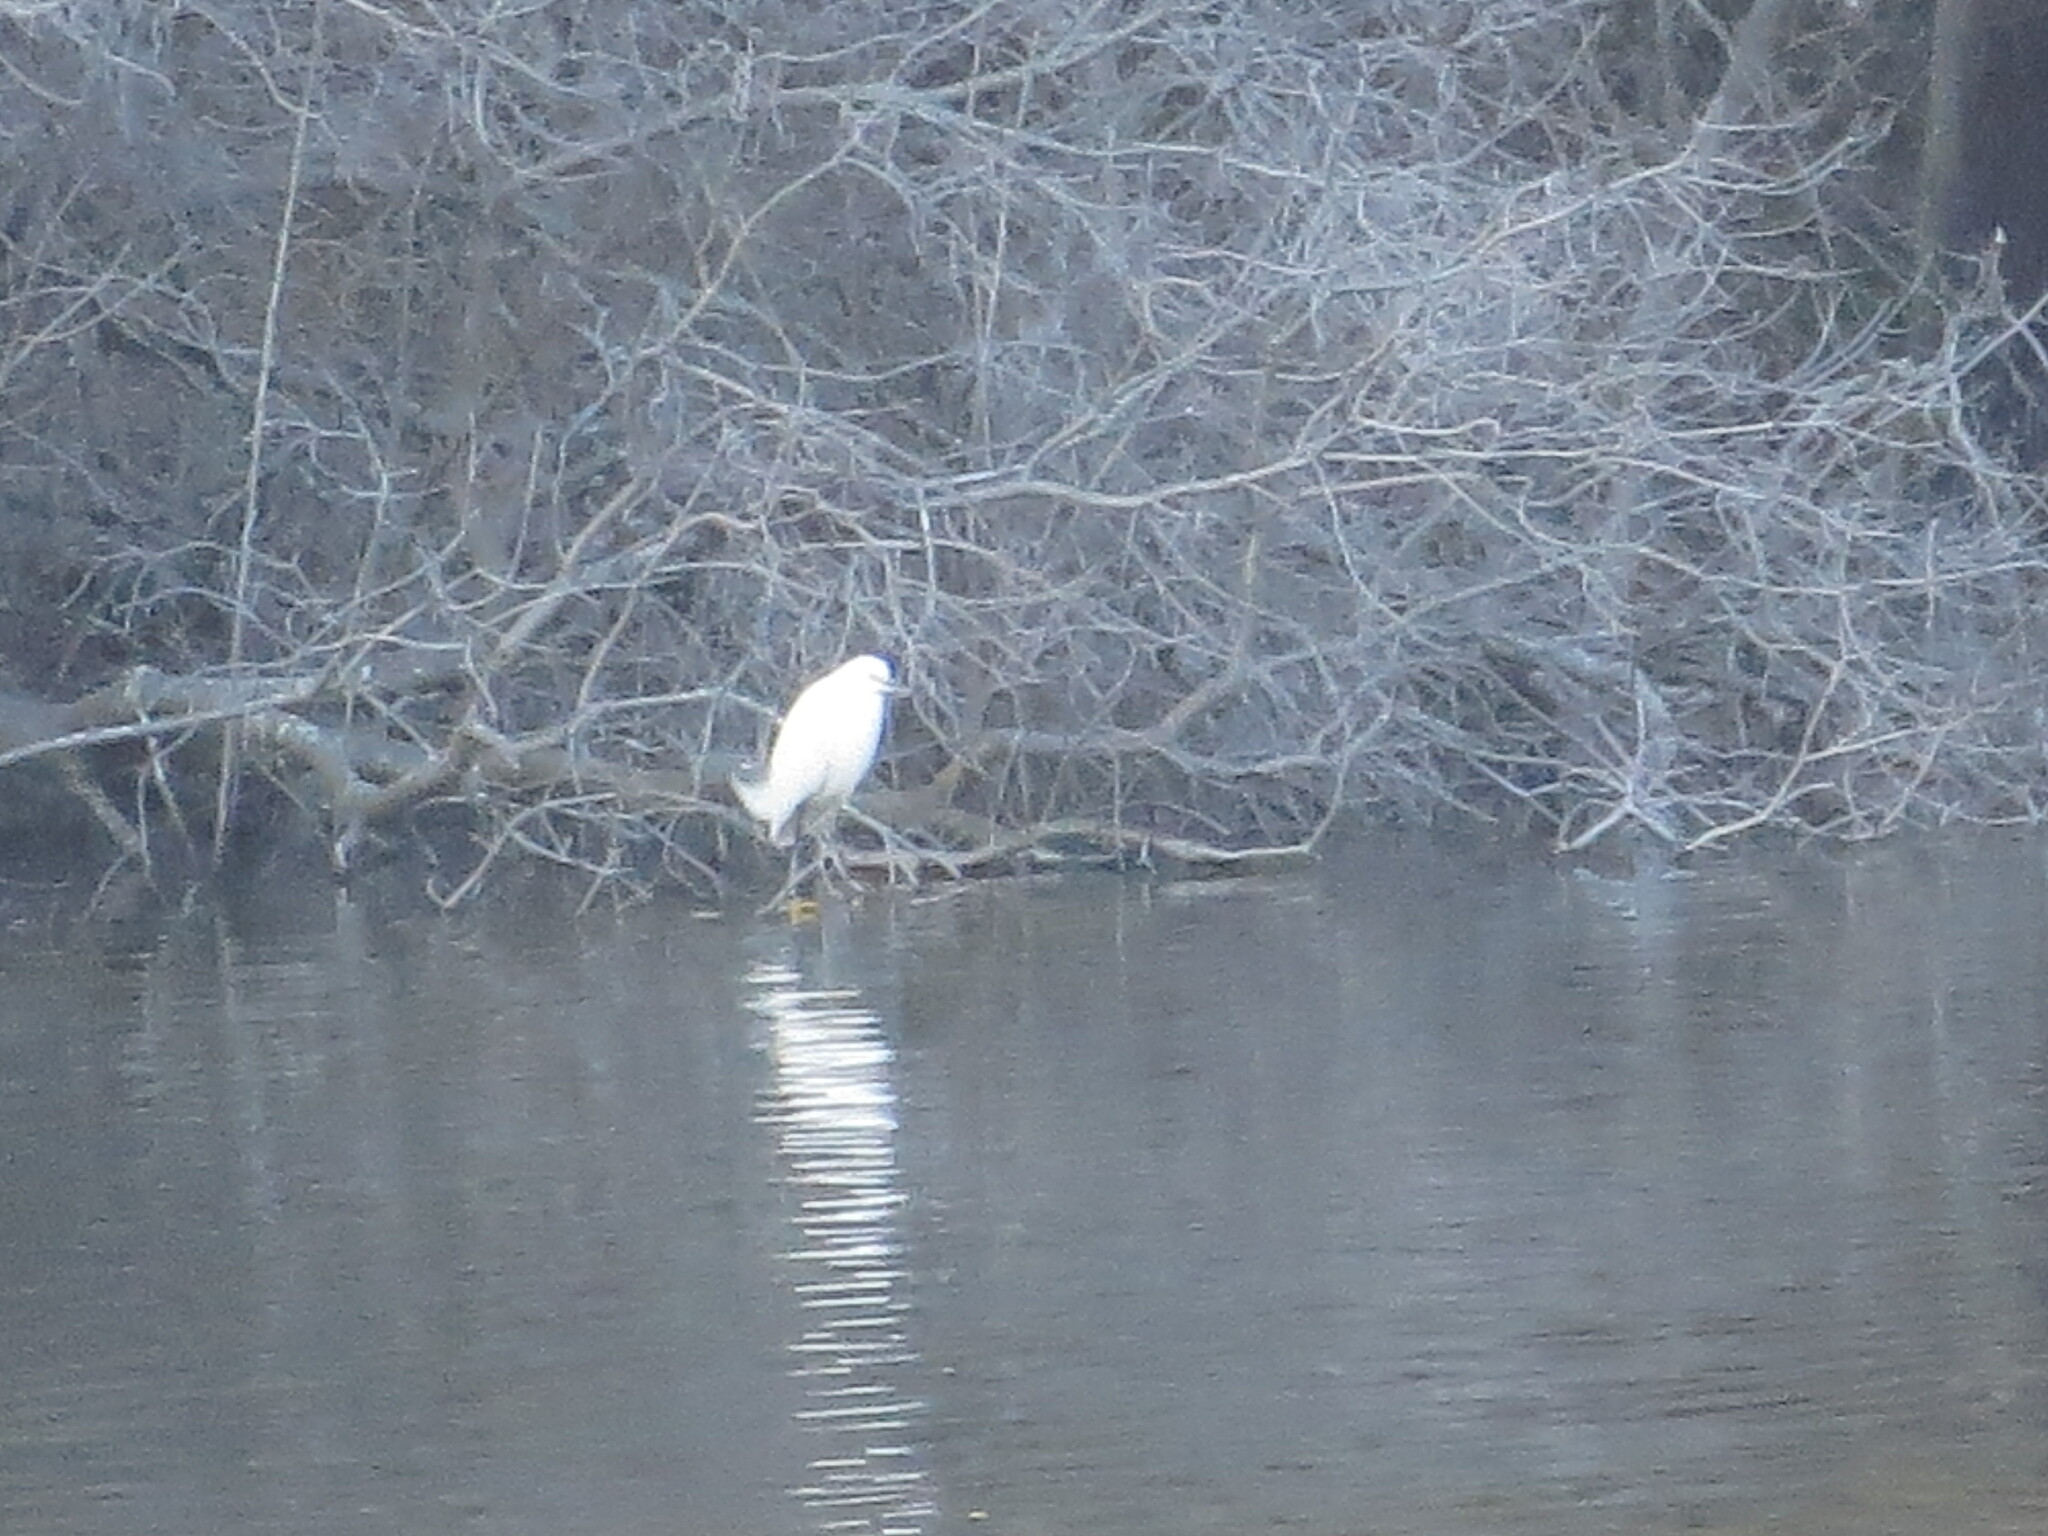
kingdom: Animalia
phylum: Chordata
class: Aves
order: Pelecaniformes
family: Ardeidae
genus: Egretta
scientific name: Egretta thula
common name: Snowy egret
